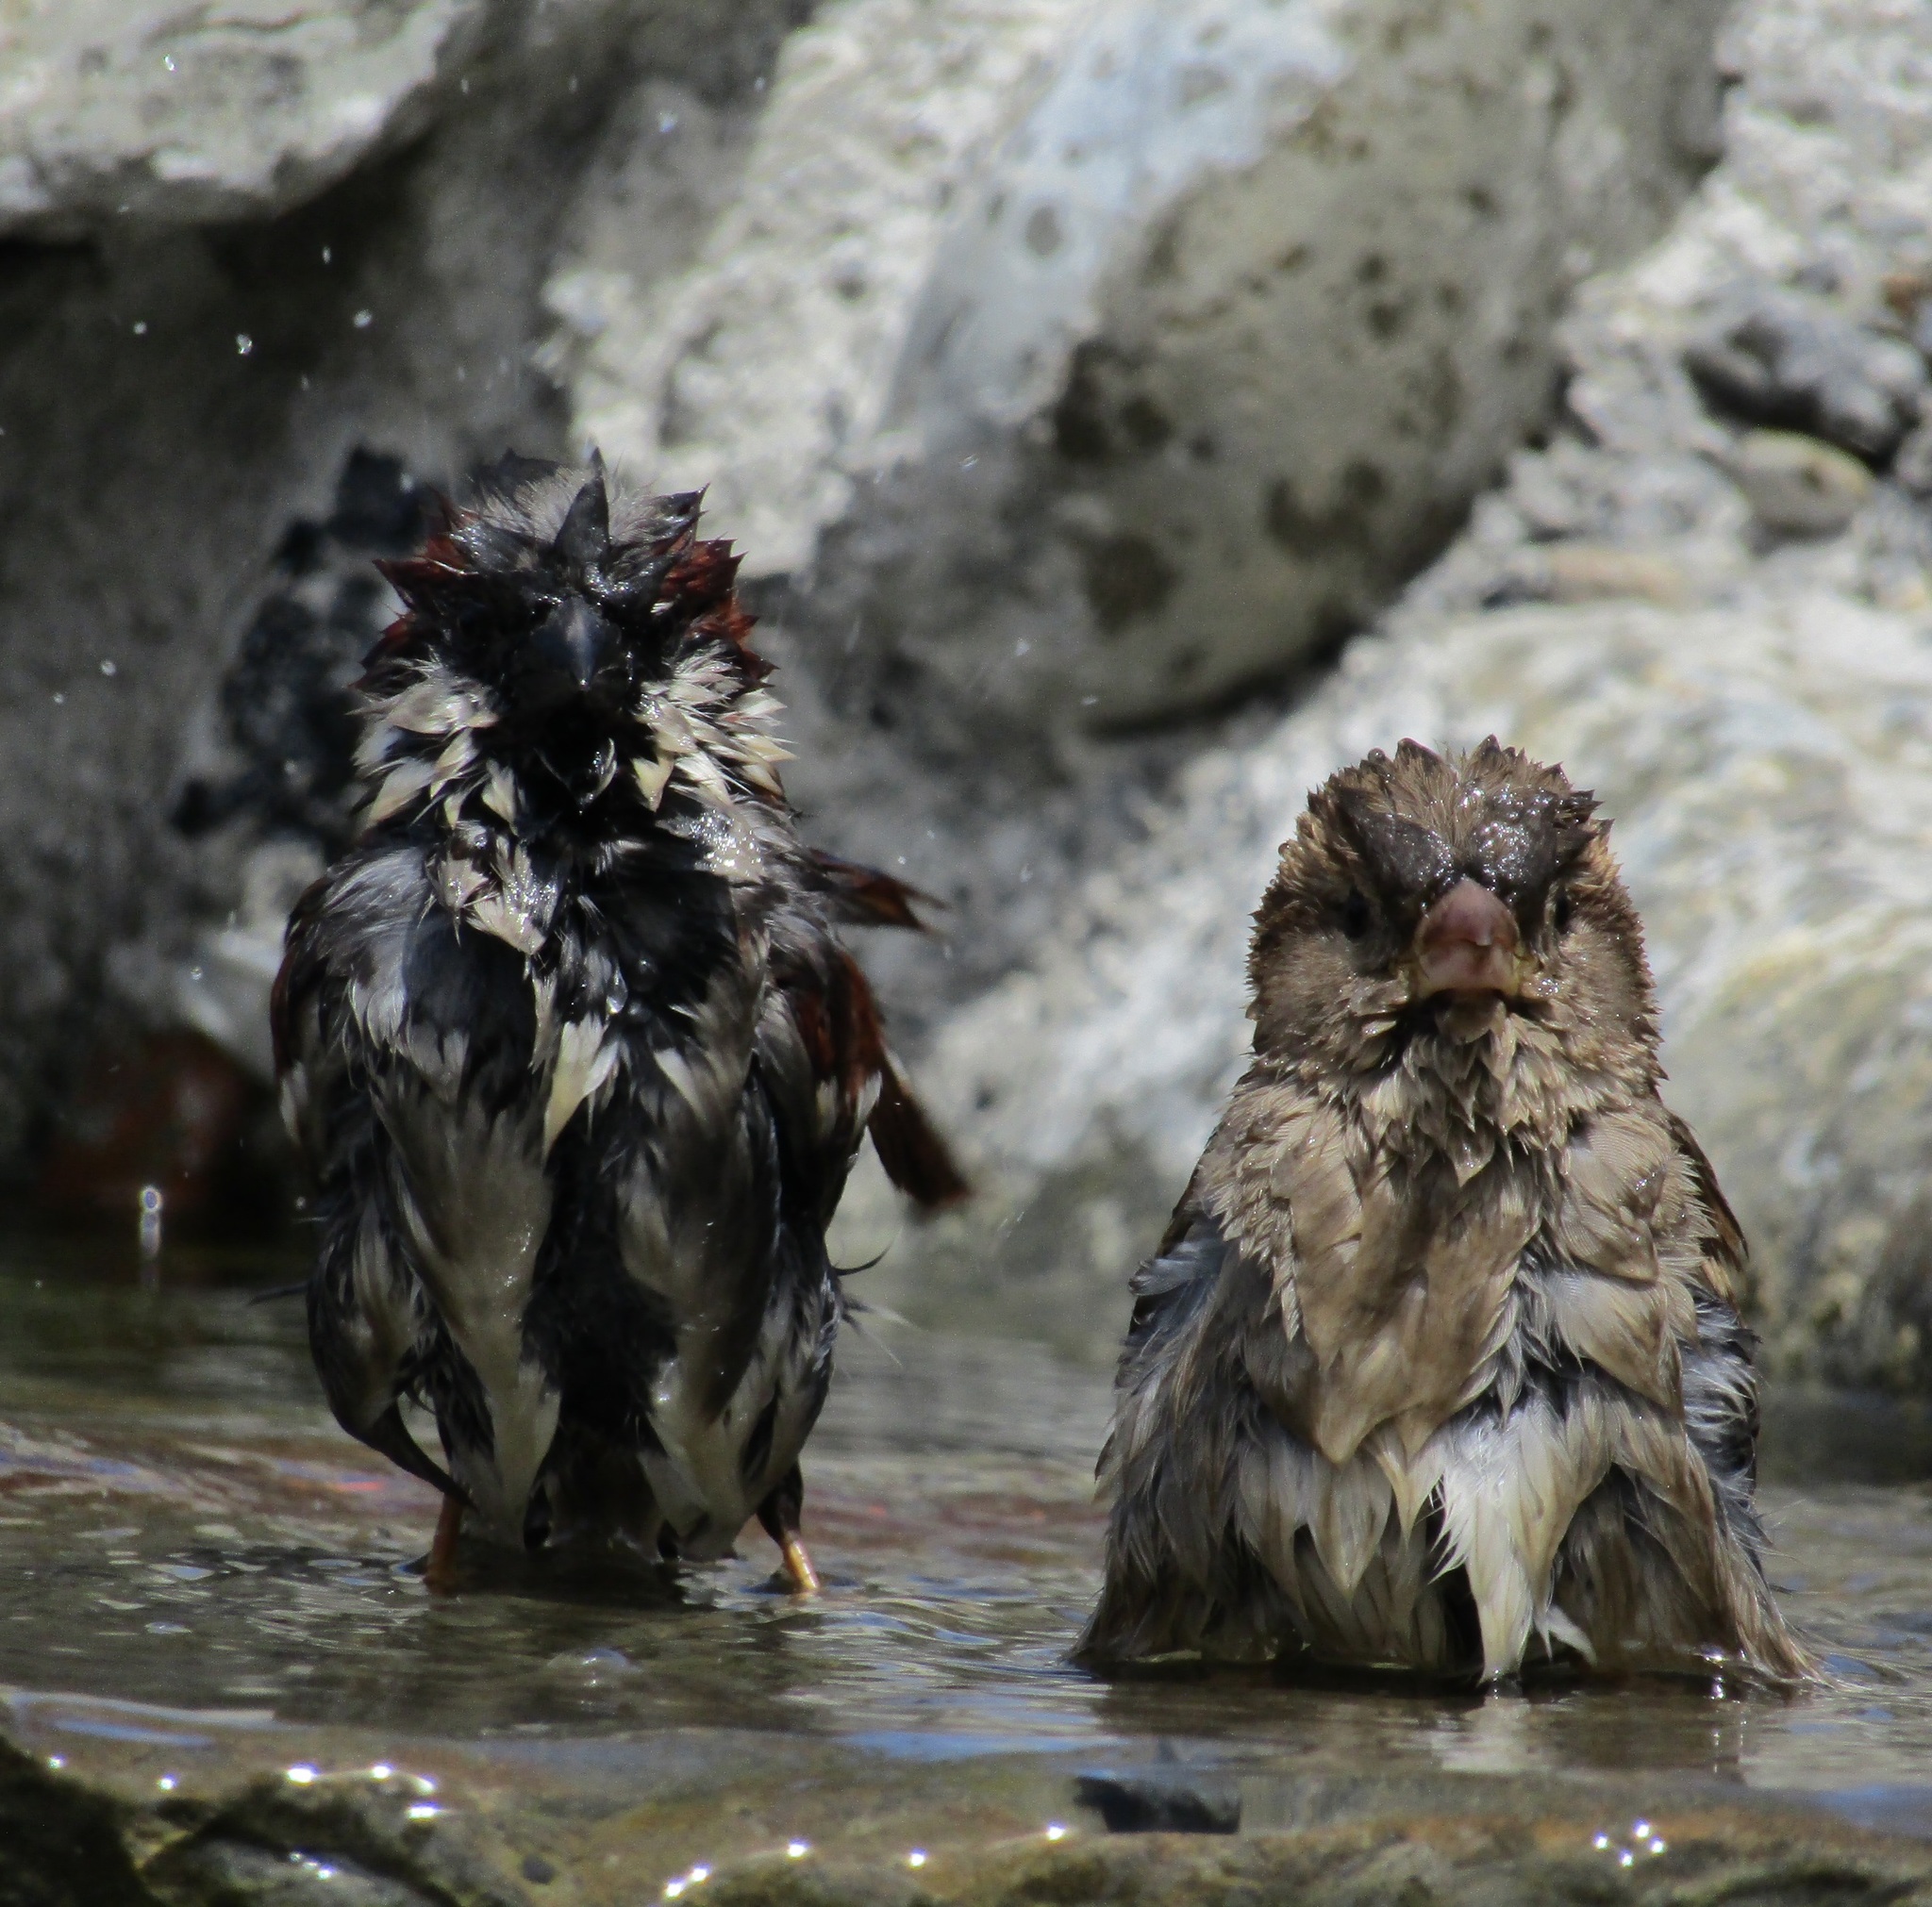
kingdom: Animalia
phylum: Chordata
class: Aves
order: Passeriformes
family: Passeridae
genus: Passer
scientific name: Passer domesticus
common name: House sparrow
